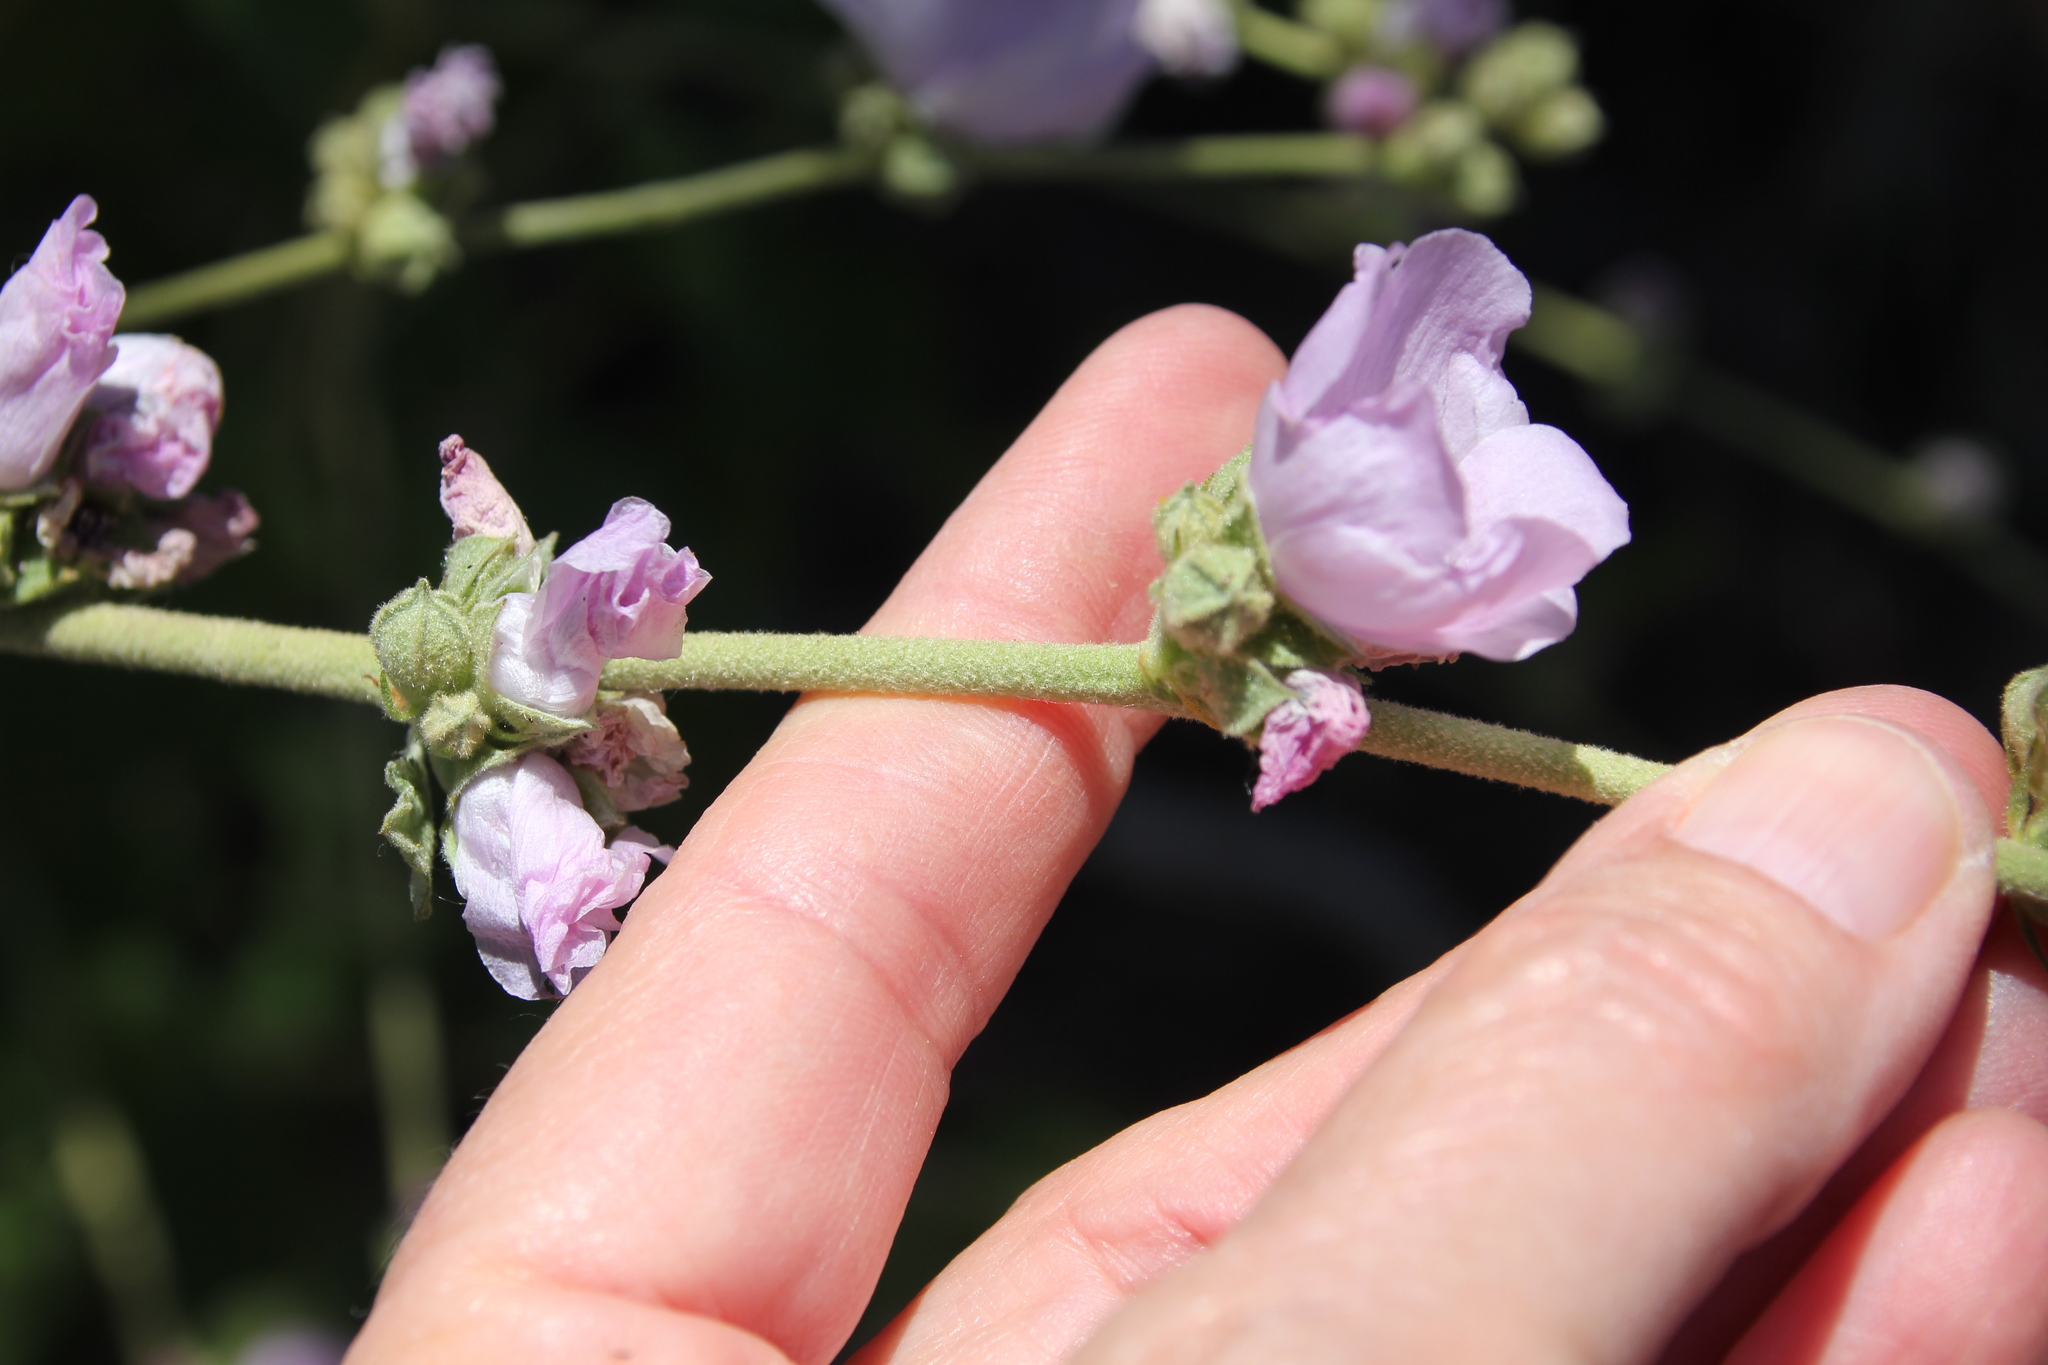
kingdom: Plantae
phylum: Tracheophyta
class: Magnoliopsida
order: Malvales
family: Malvaceae
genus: Malacothamnus
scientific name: Malacothamnus fasciculatus
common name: Sant cruz island bush-mallow
